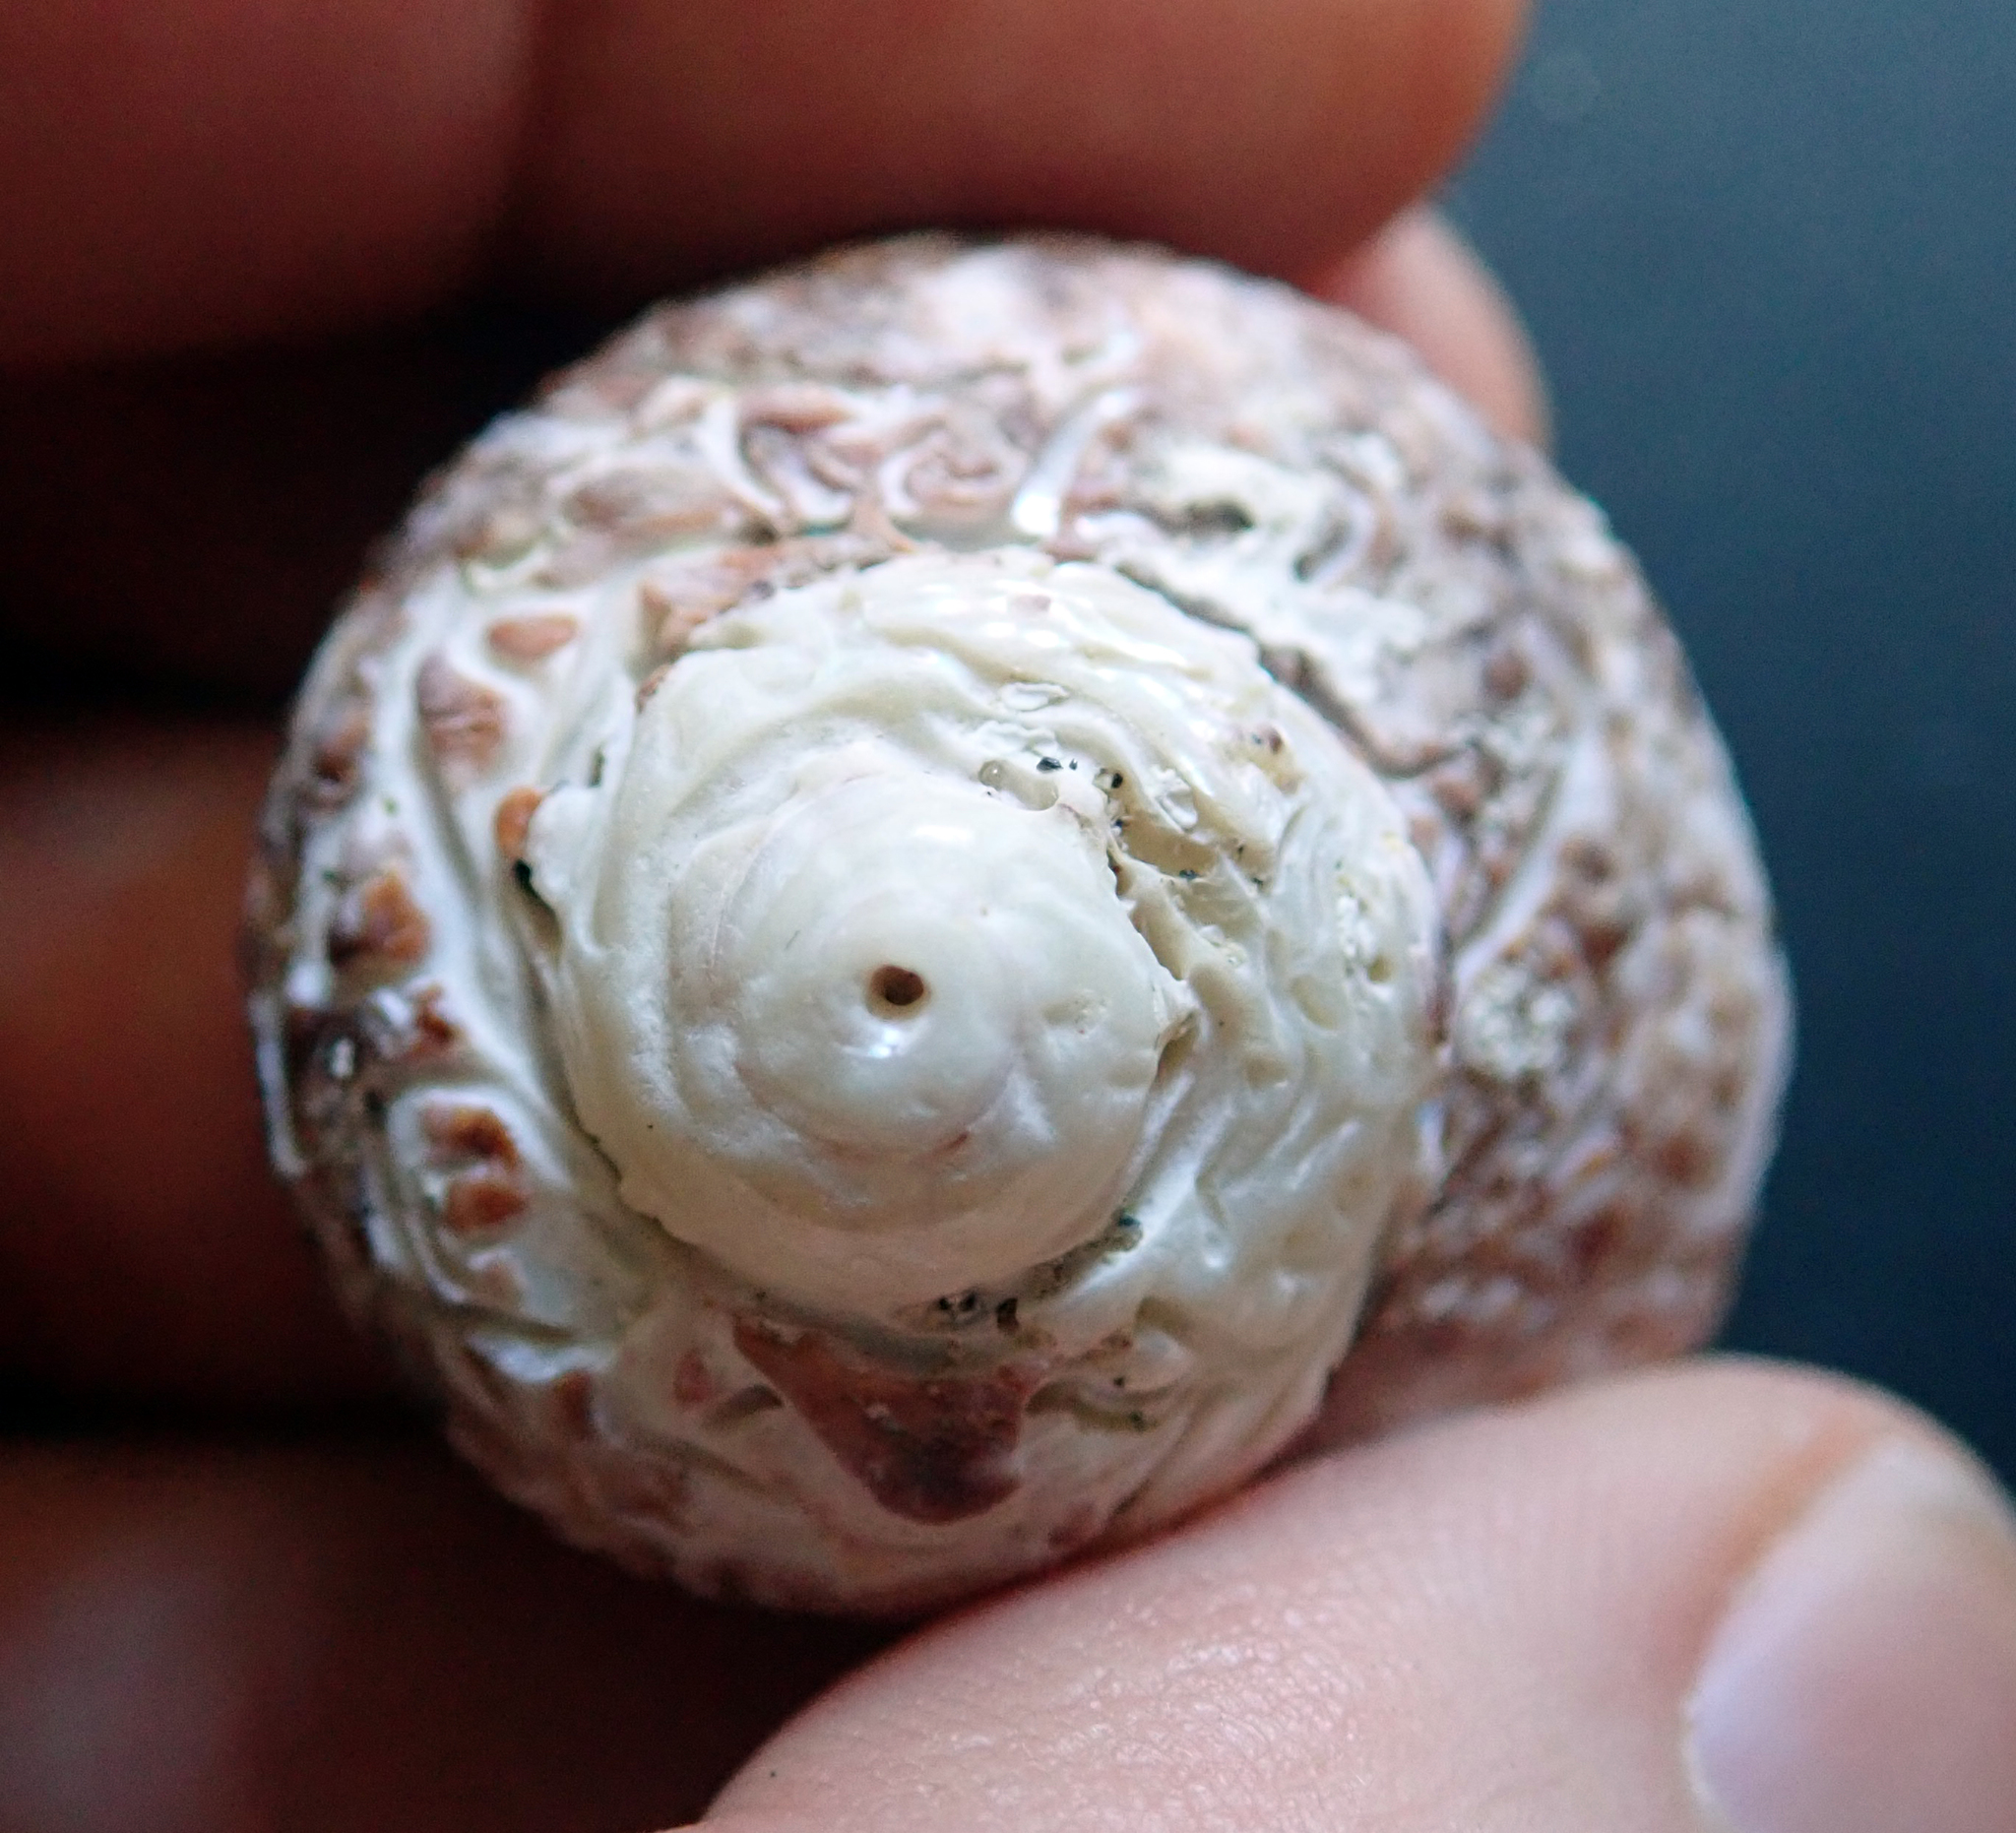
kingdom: Animalia
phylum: Mollusca
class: Gastropoda
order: Trochida
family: Turbinidae
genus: Modelia
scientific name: Modelia granosa
